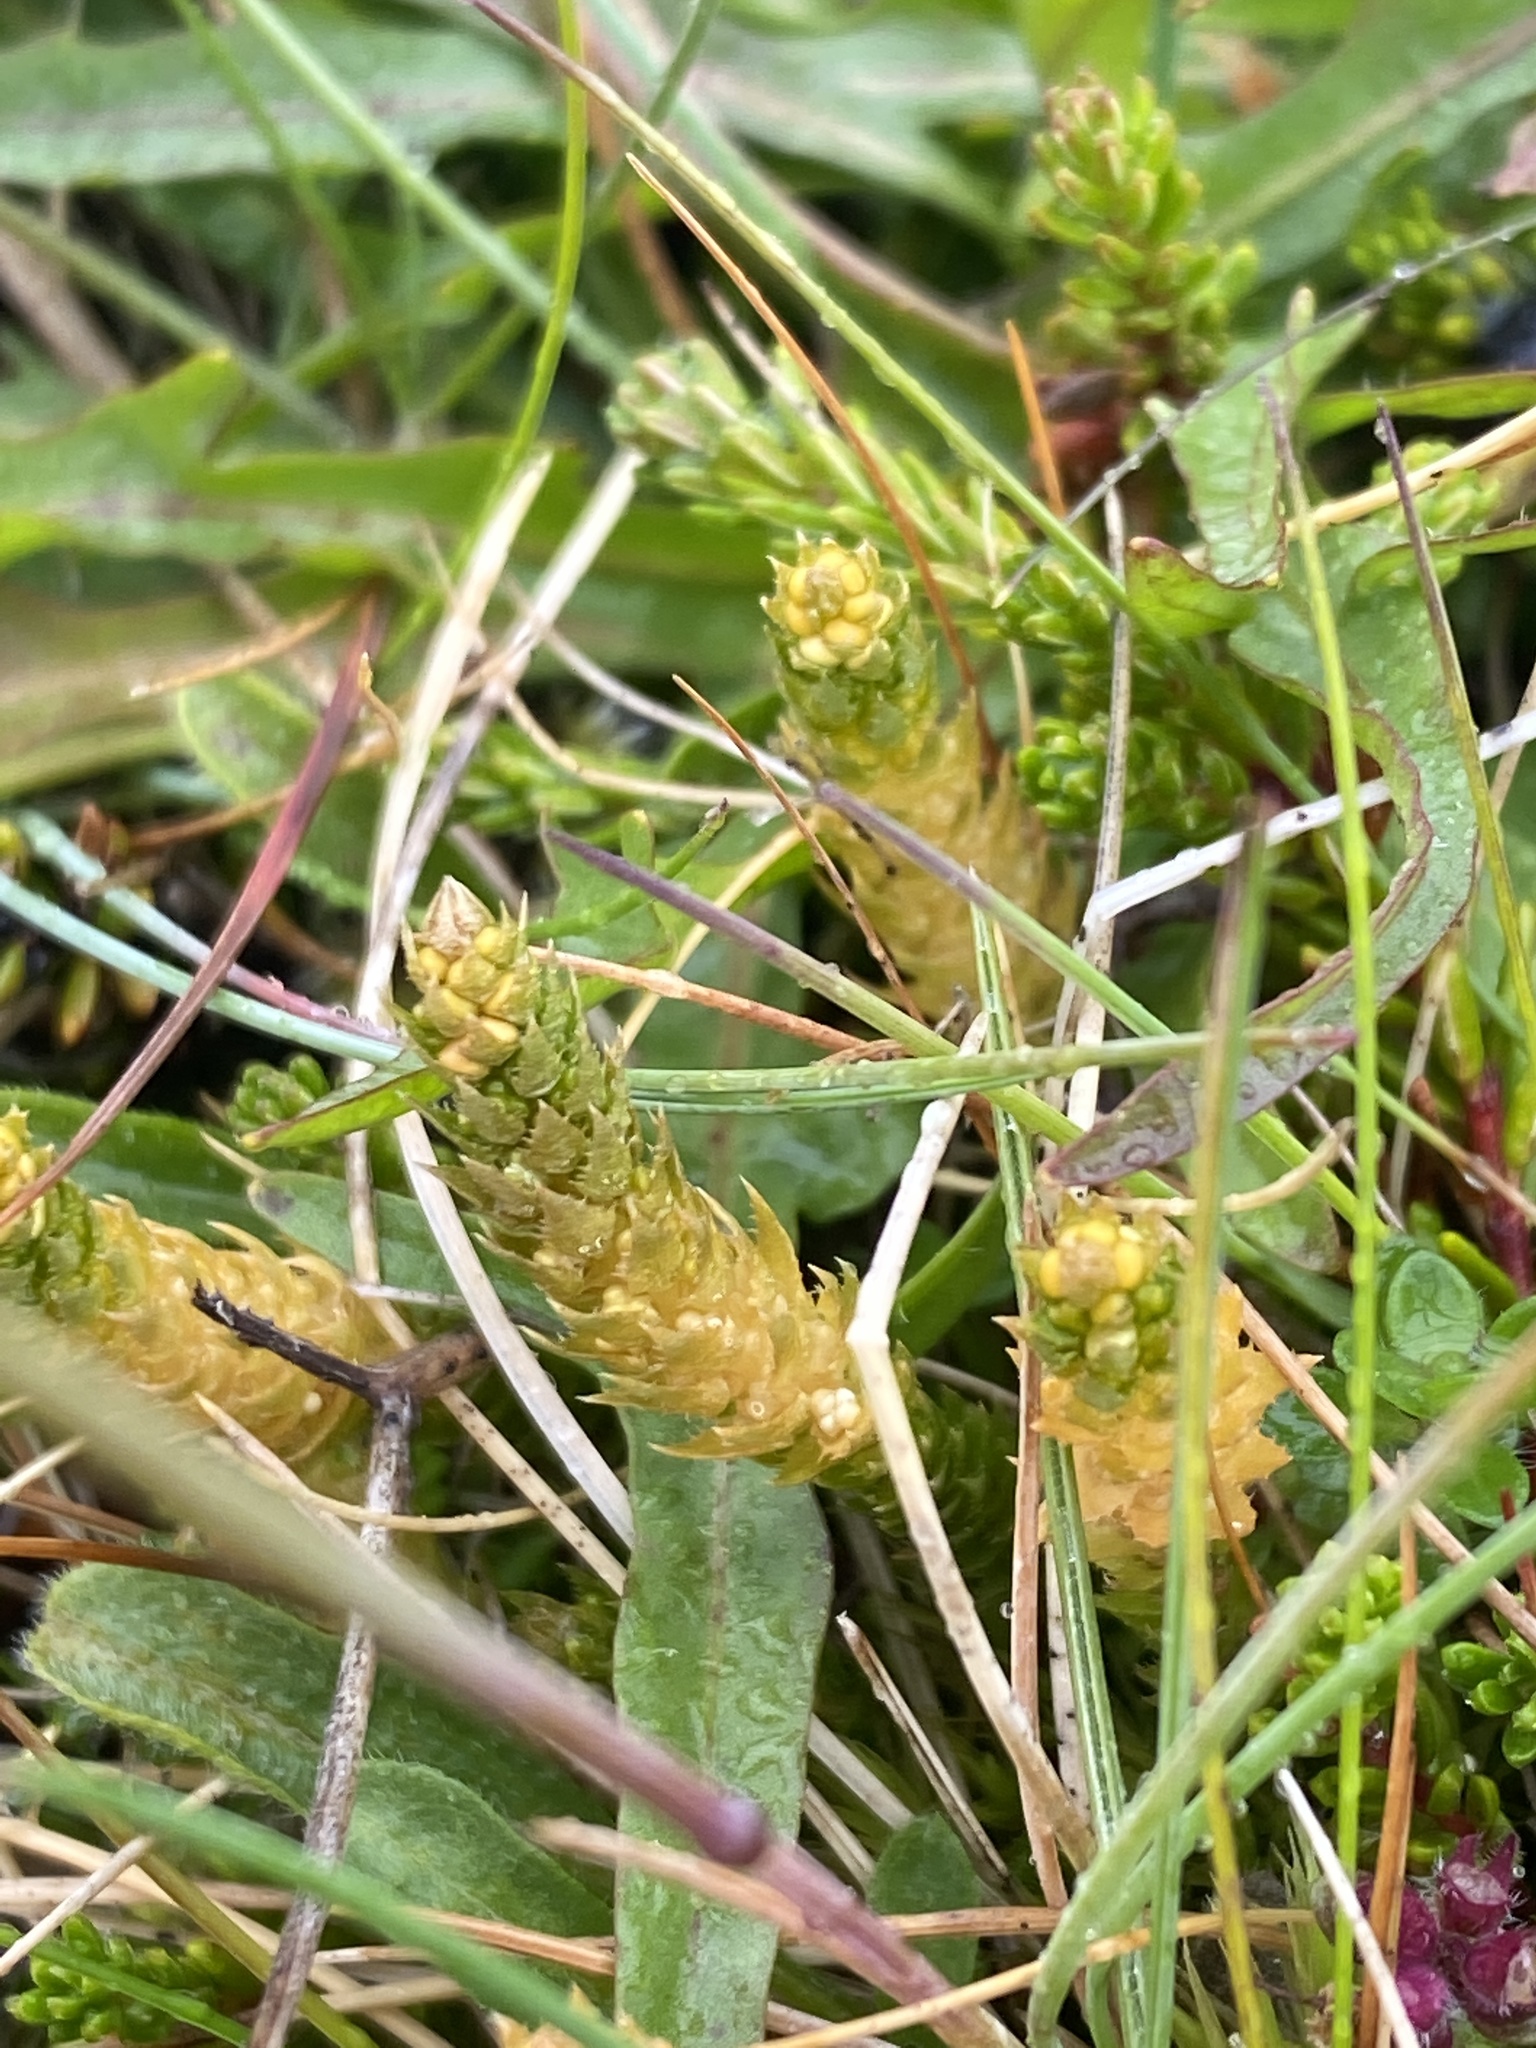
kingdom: Plantae
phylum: Tracheophyta
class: Lycopodiopsida
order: Selaginellales
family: Selaginellaceae
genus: Selaginella
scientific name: Selaginella selaginoides
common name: Prickly mountain-moss
